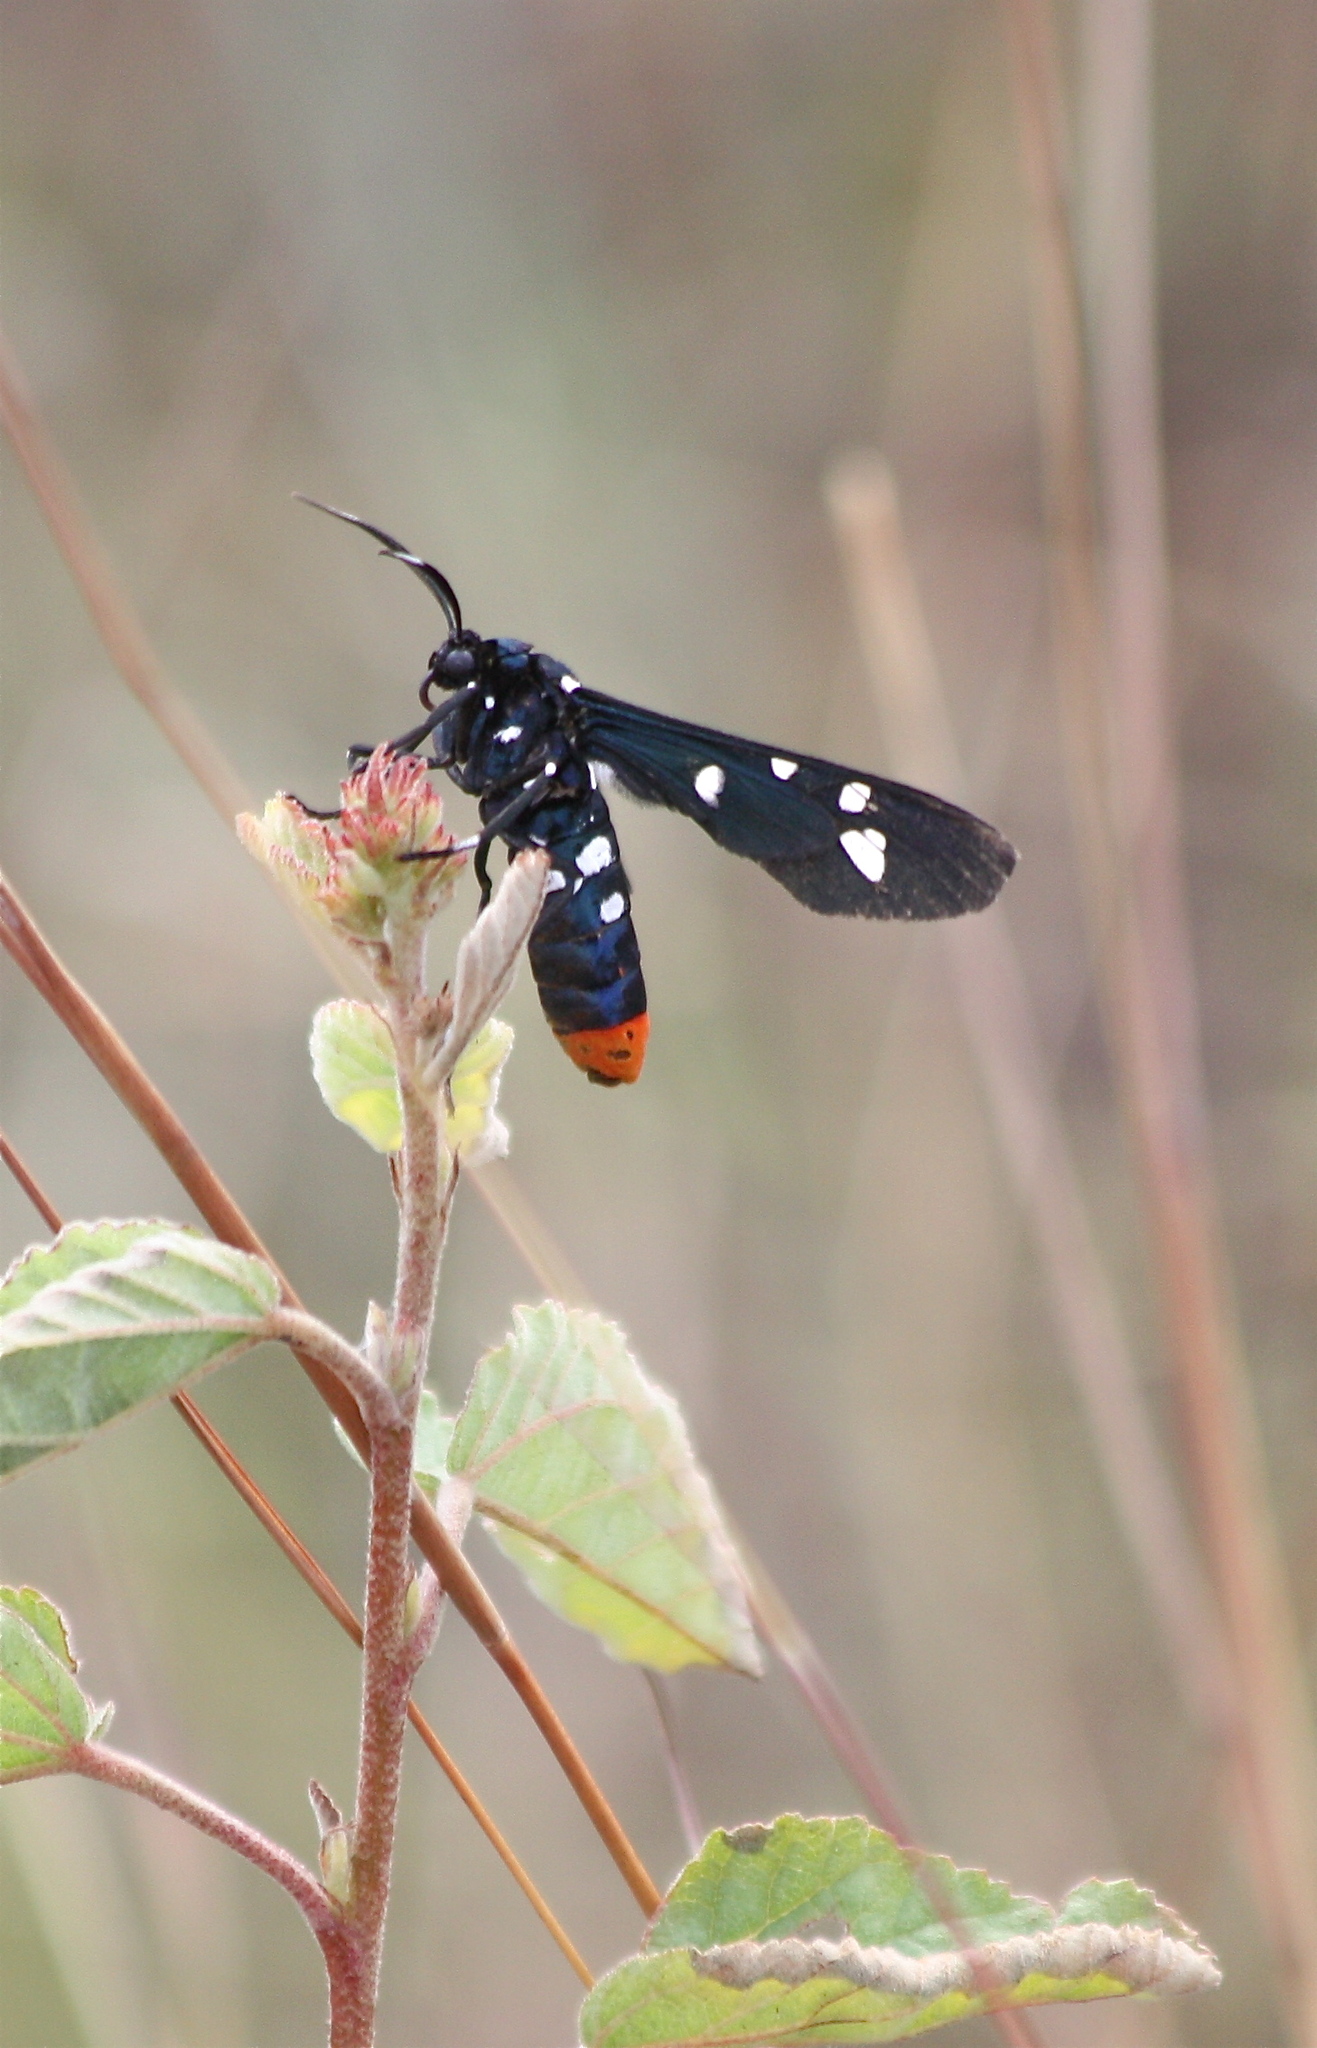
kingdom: Animalia
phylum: Arthropoda
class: Insecta
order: Lepidoptera
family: Erebidae
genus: Syntomeida
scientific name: Syntomeida epilais
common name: Polka-dot wasp moth
